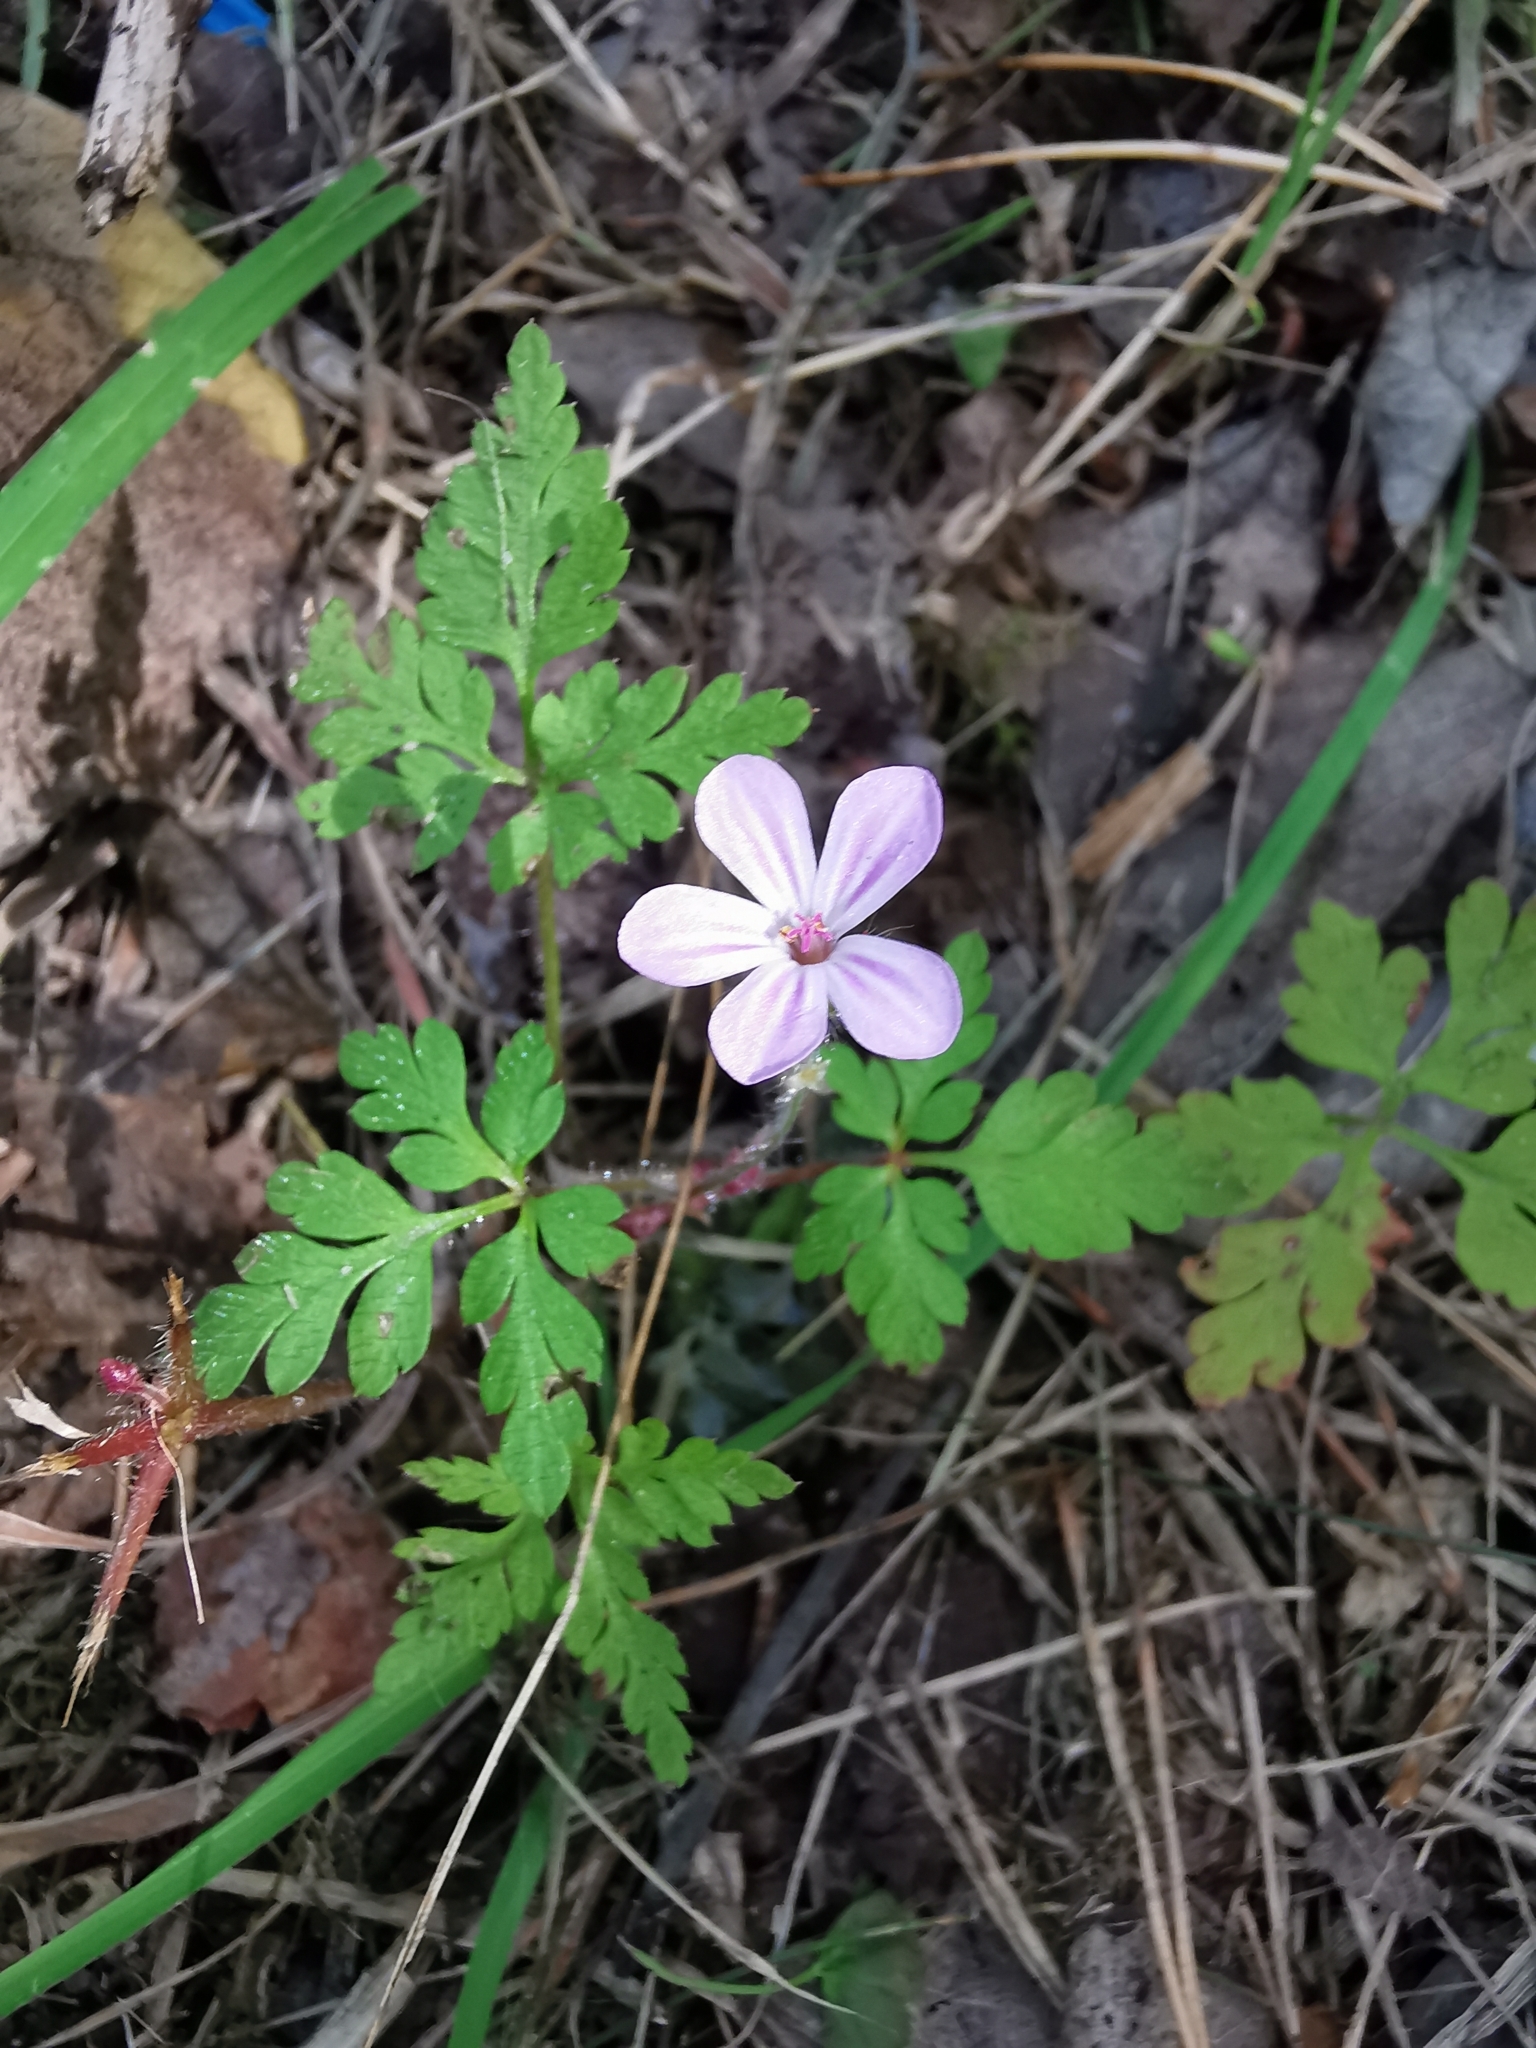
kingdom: Plantae
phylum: Tracheophyta
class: Magnoliopsida
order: Geraniales
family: Geraniaceae
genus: Geranium
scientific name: Geranium robertianum
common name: Herb-robert
